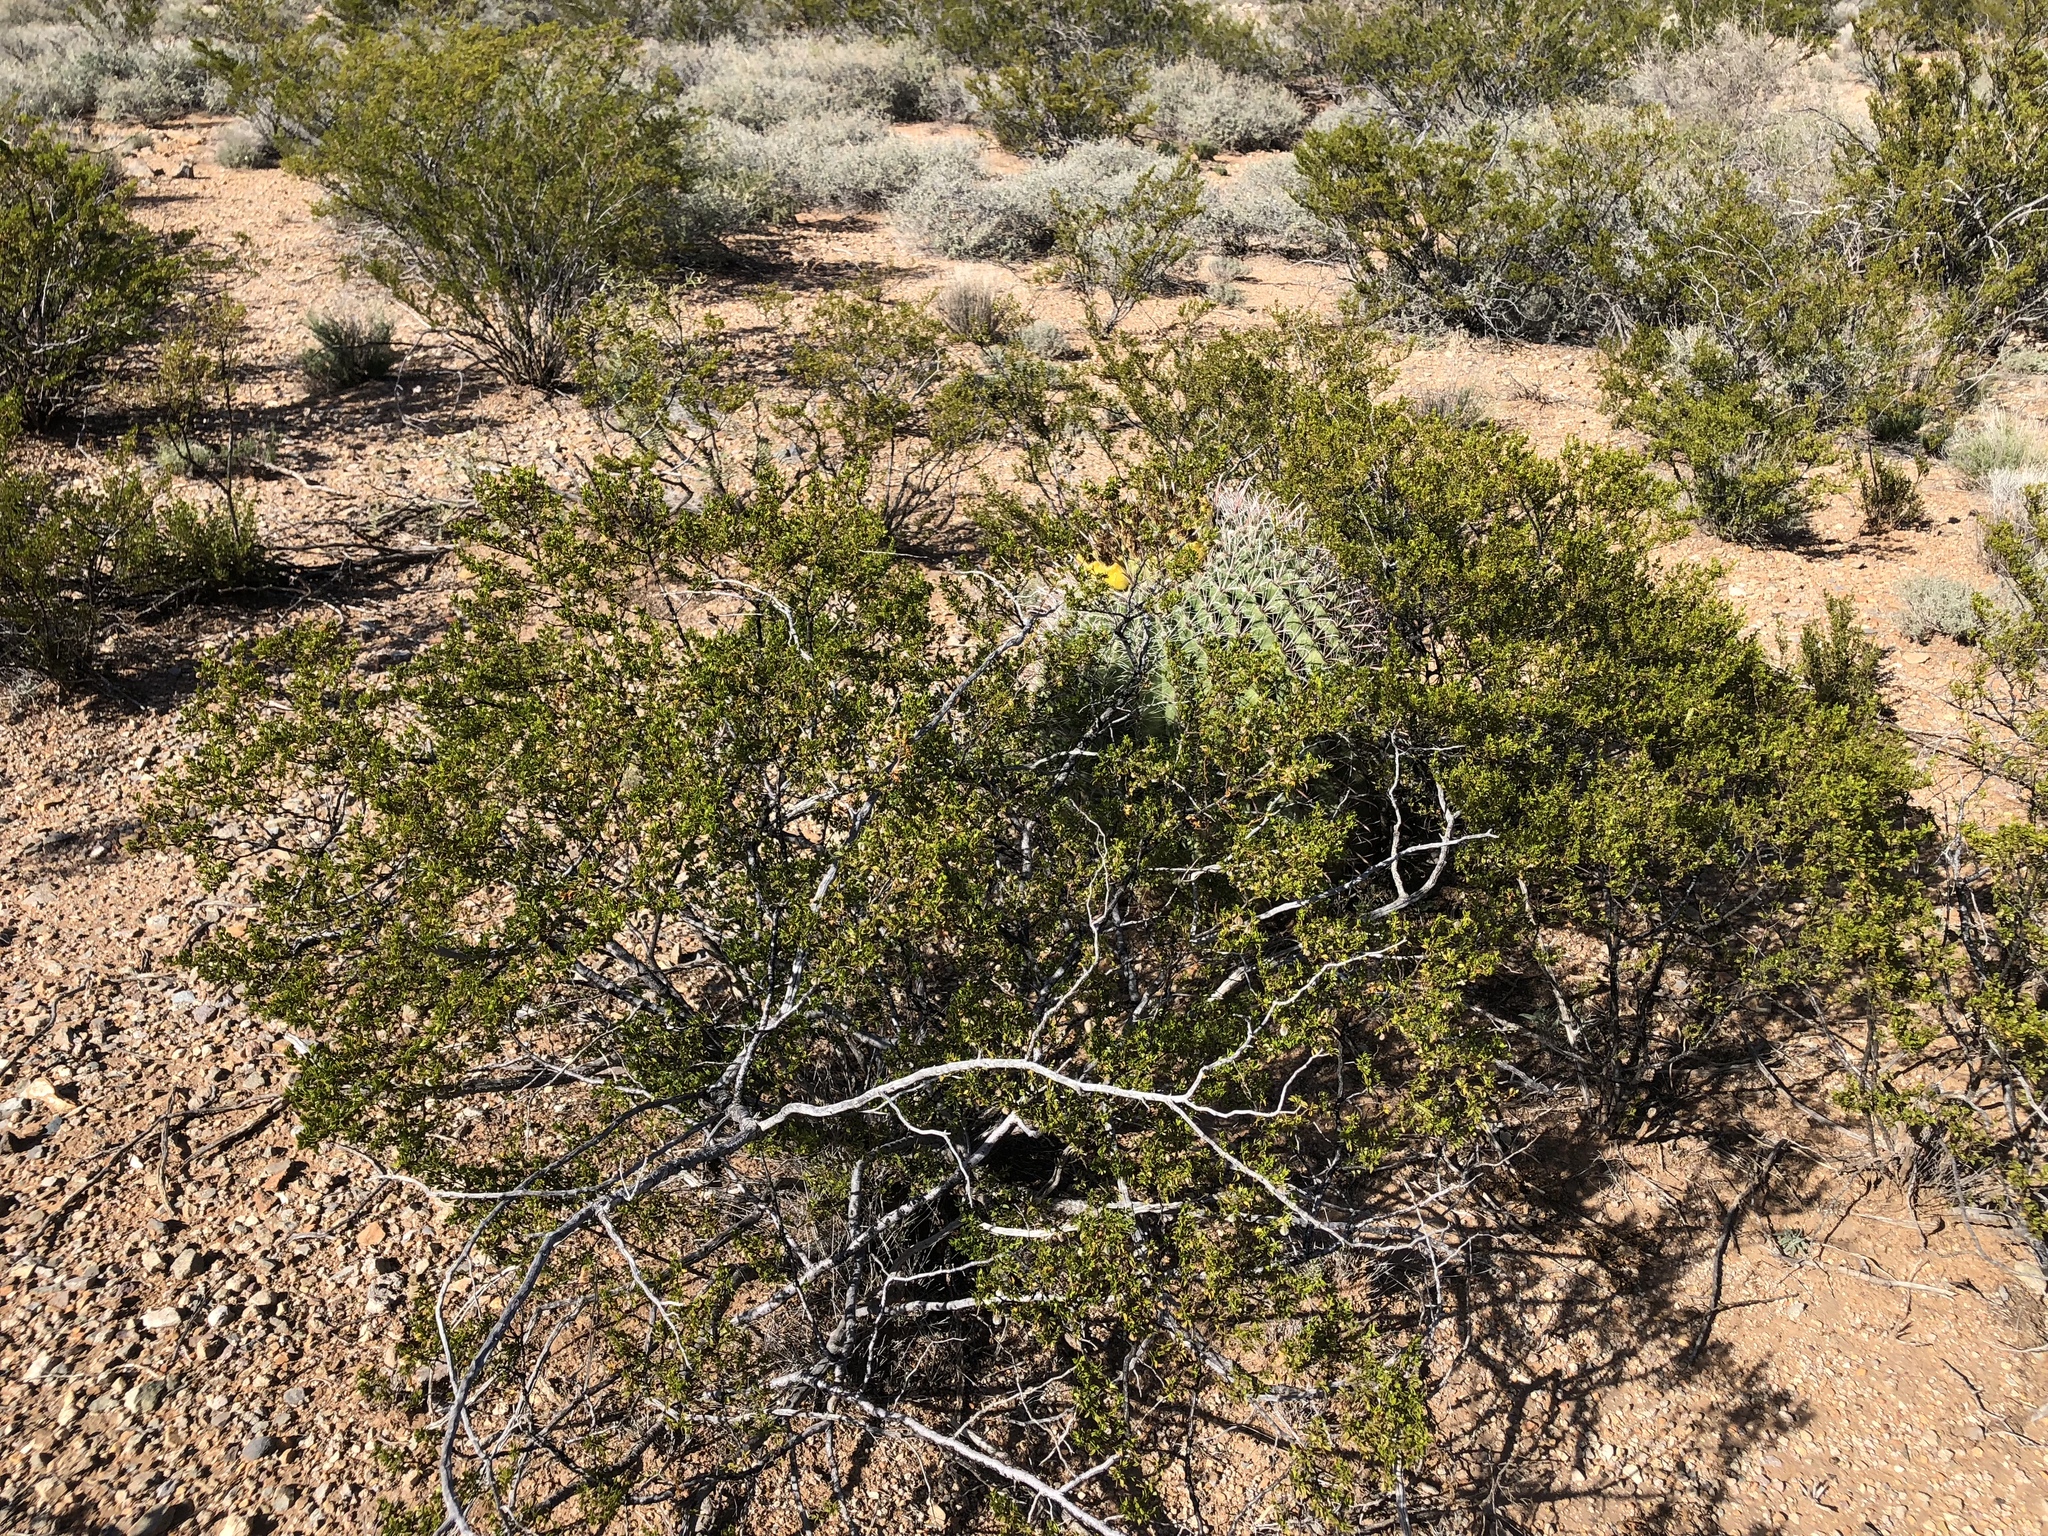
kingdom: Plantae
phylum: Tracheophyta
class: Magnoliopsida
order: Zygophyllales
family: Zygophyllaceae
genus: Larrea
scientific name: Larrea tridentata
